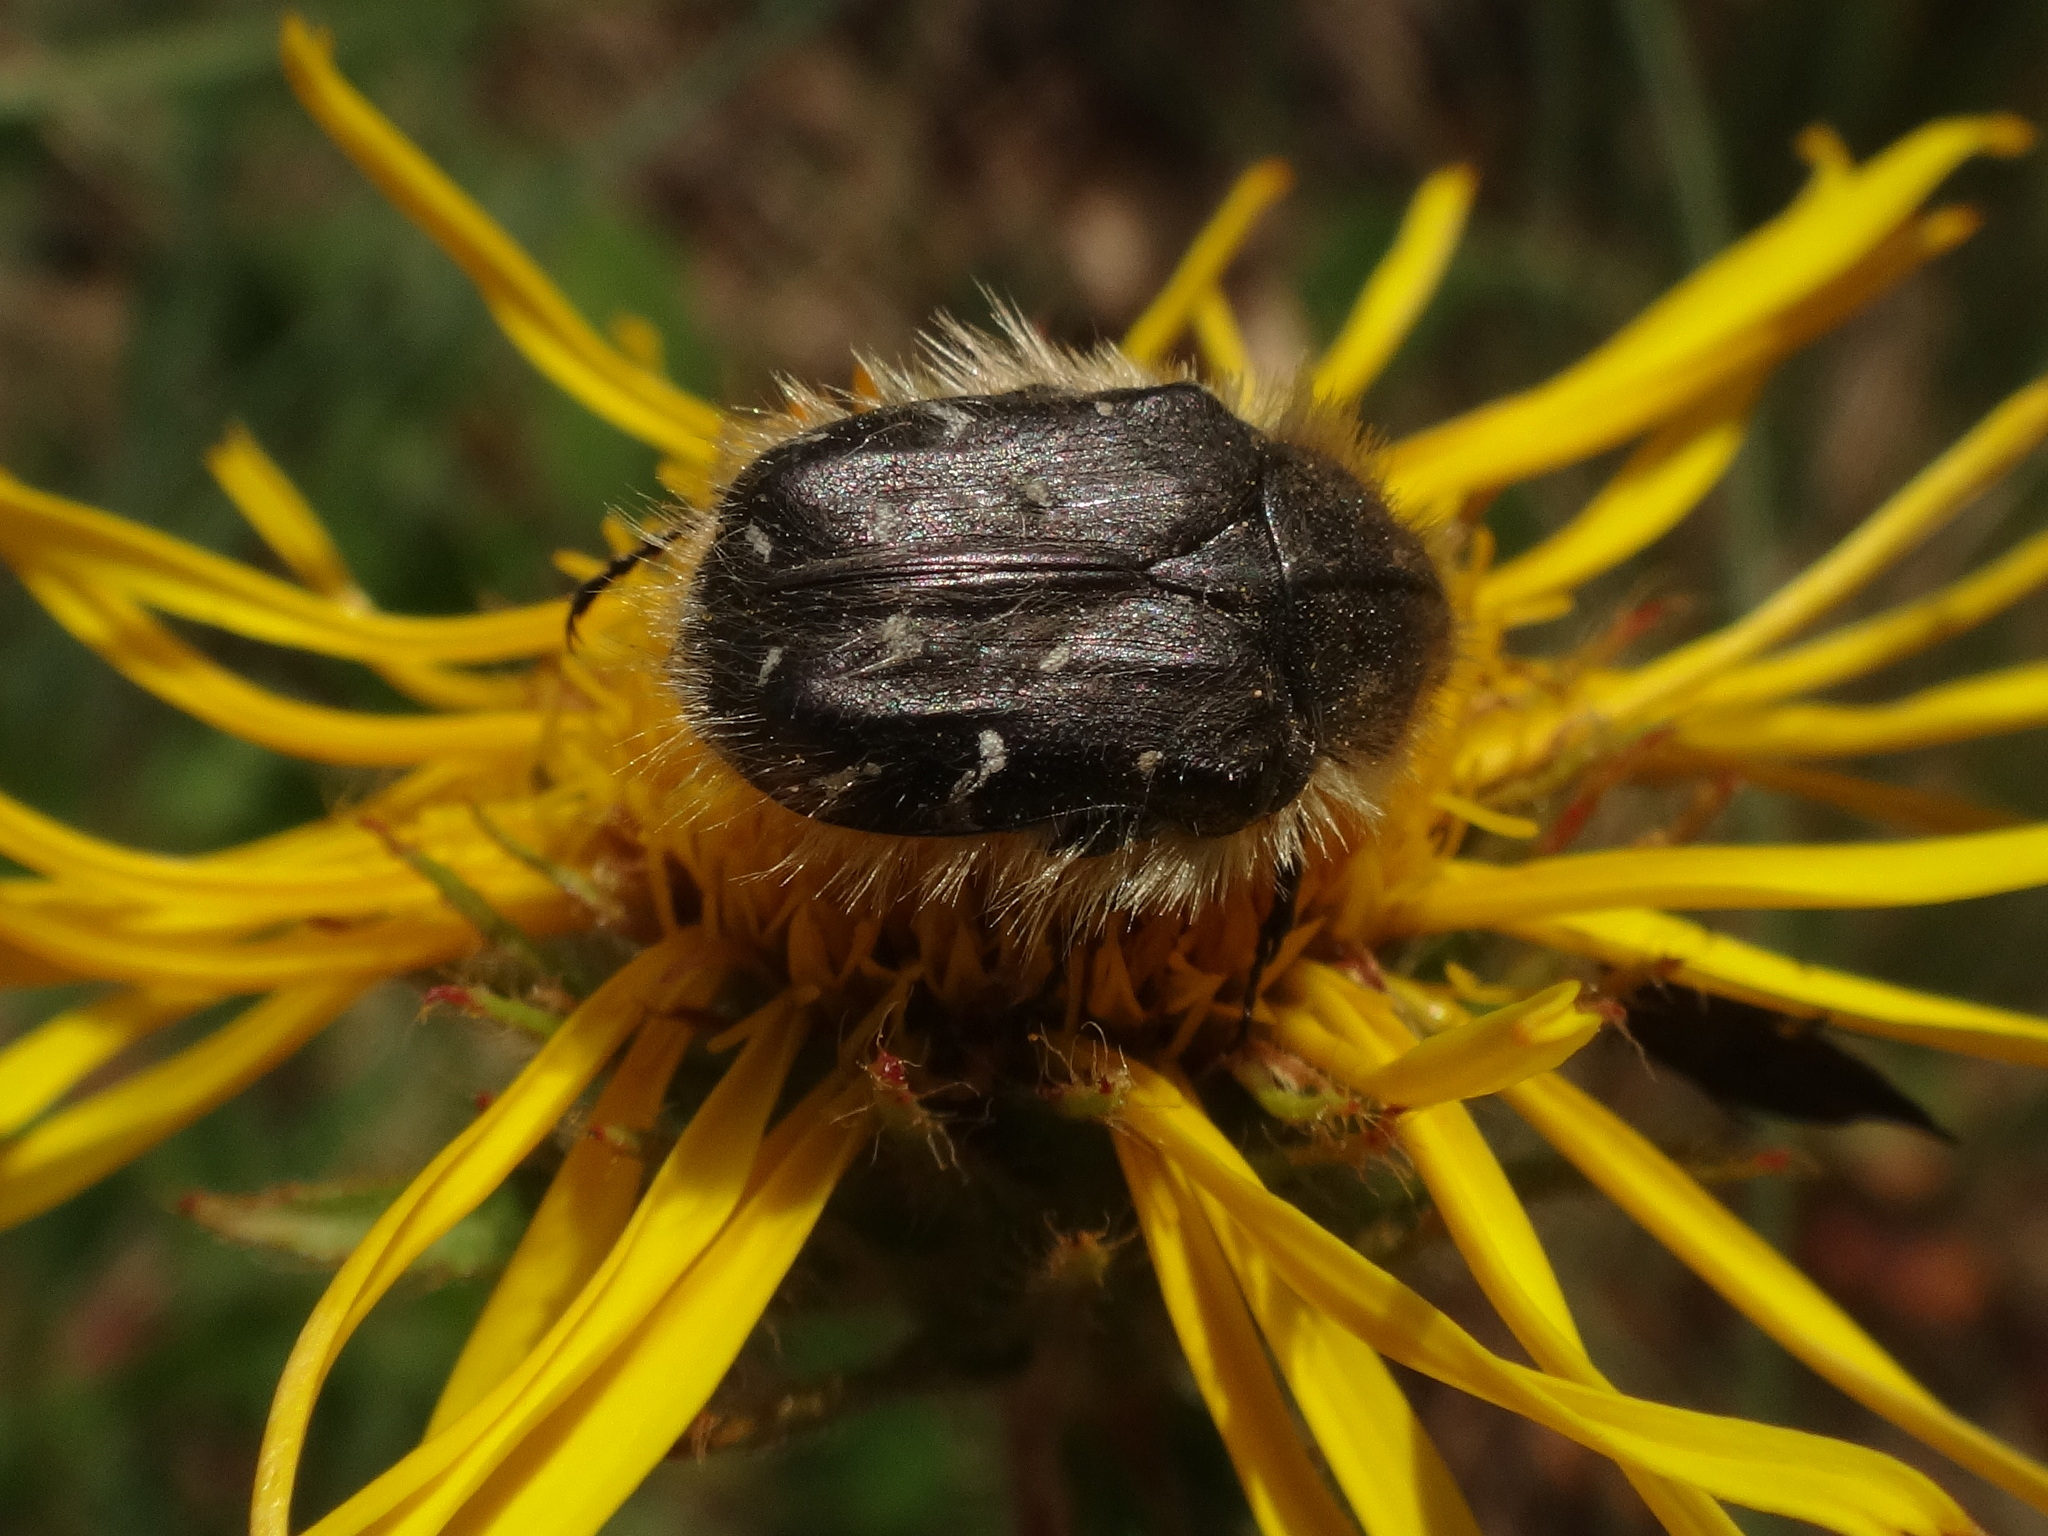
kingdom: Animalia
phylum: Arthropoda
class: Insecta
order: Coleoptera
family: Scarabaeidae
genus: Tropinota
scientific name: Tropinota hirta
